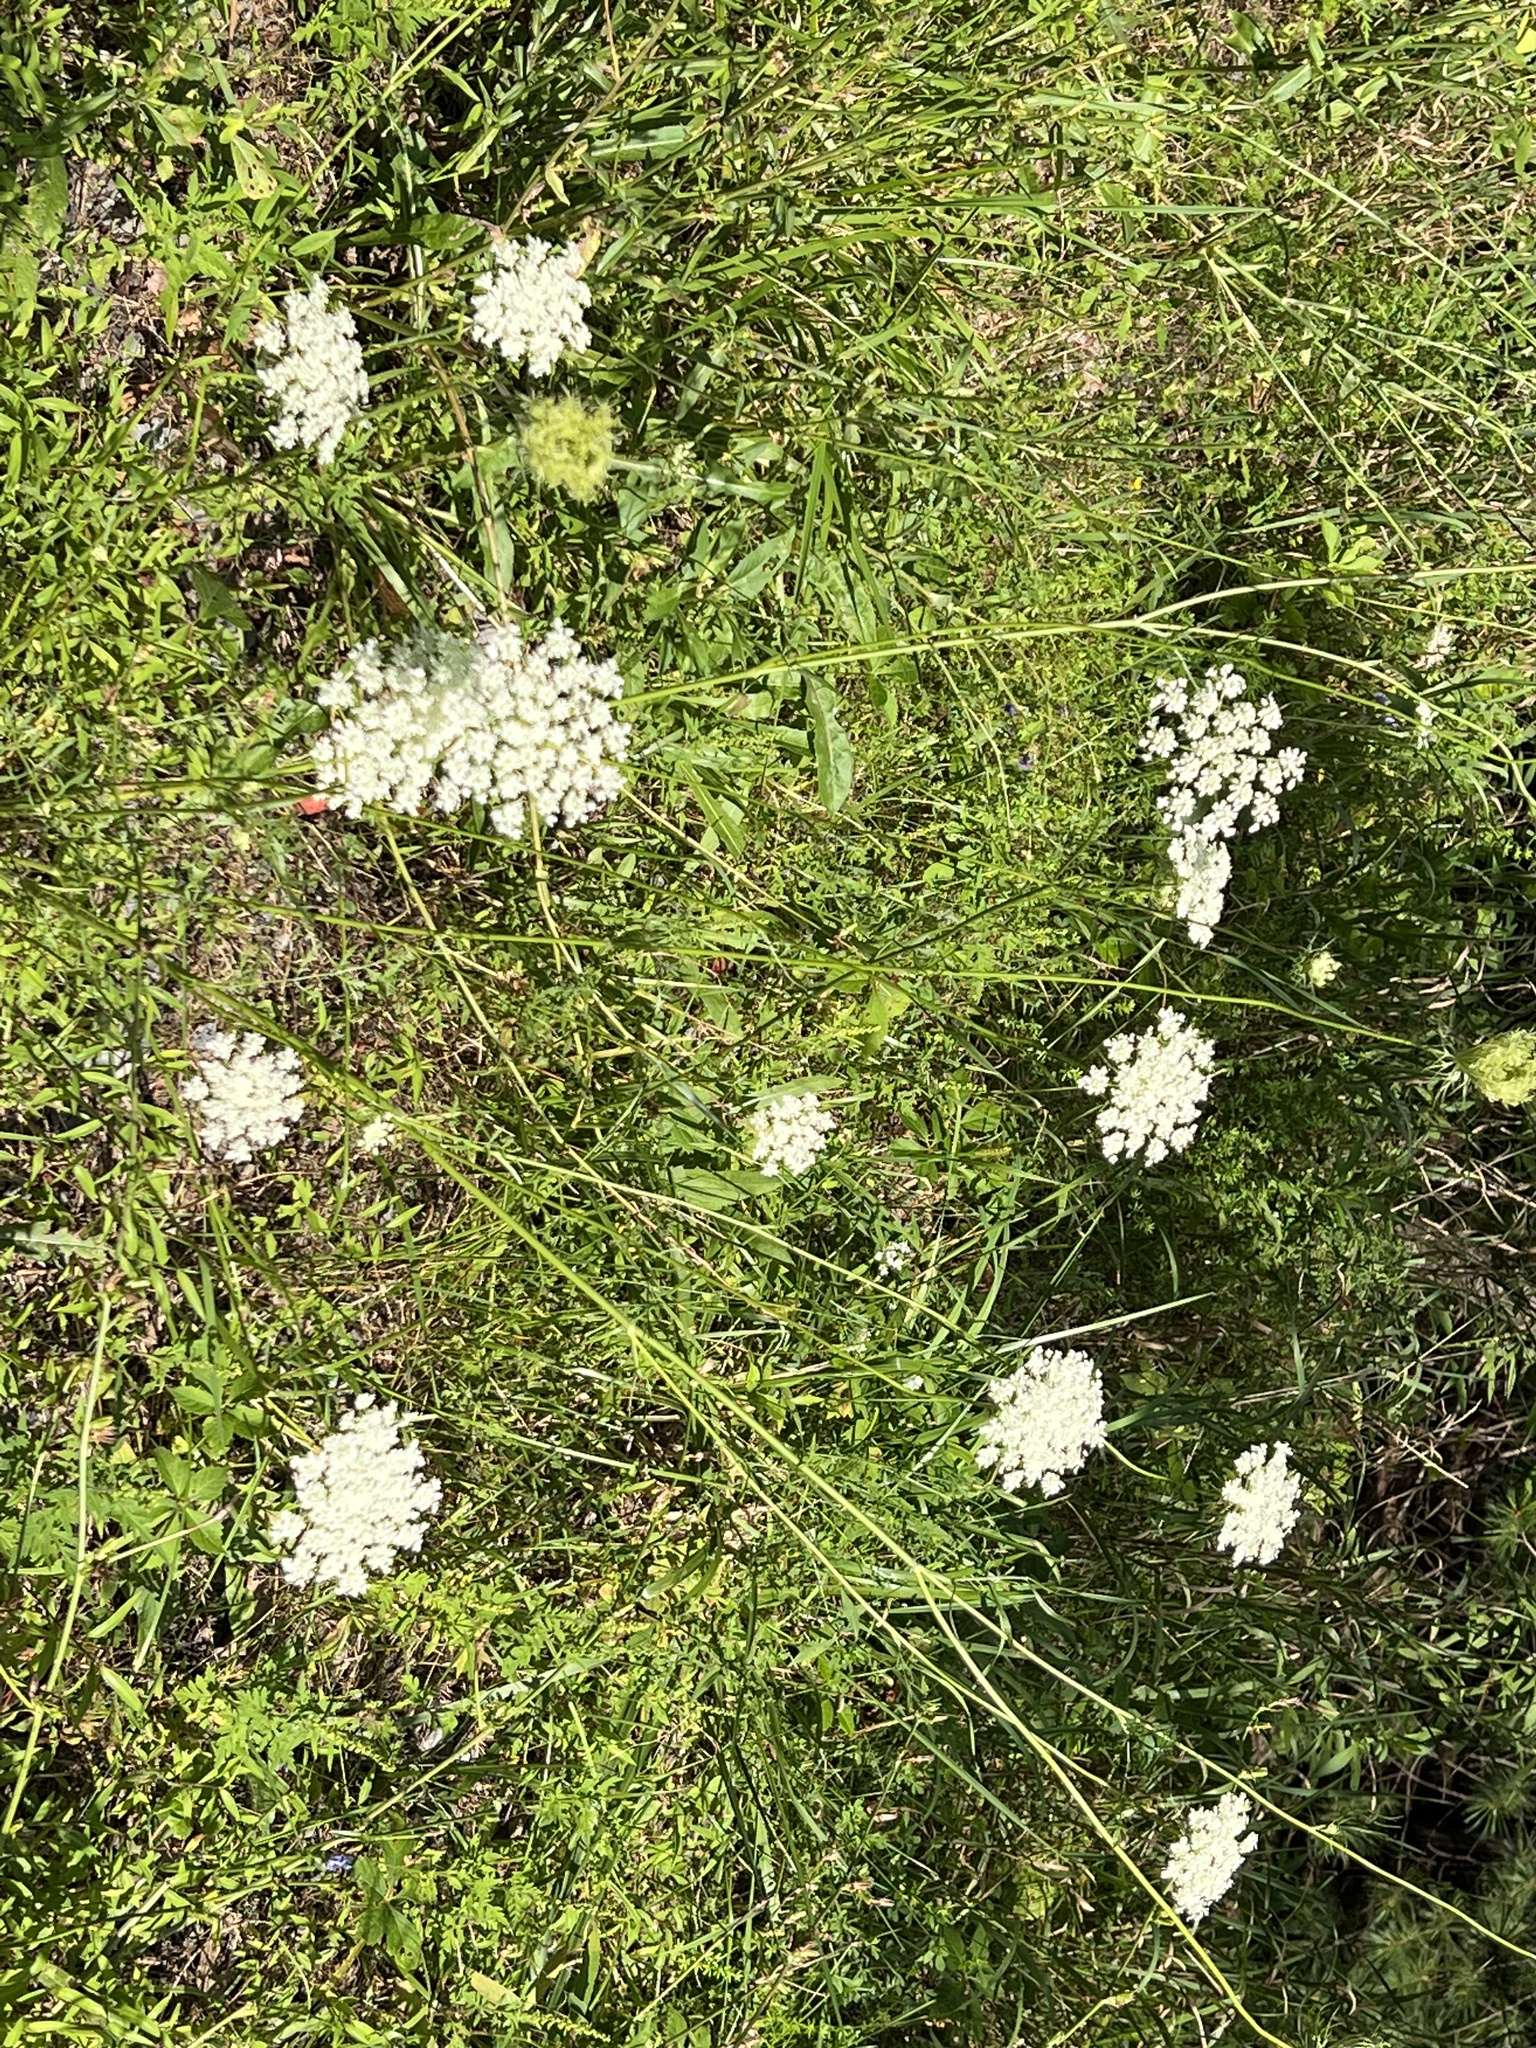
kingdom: Plantae
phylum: Tracheophyta
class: Magnoliopsida
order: Apiales
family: Apiaceae
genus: Daucus
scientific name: Daucus carota
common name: Wild carrot
